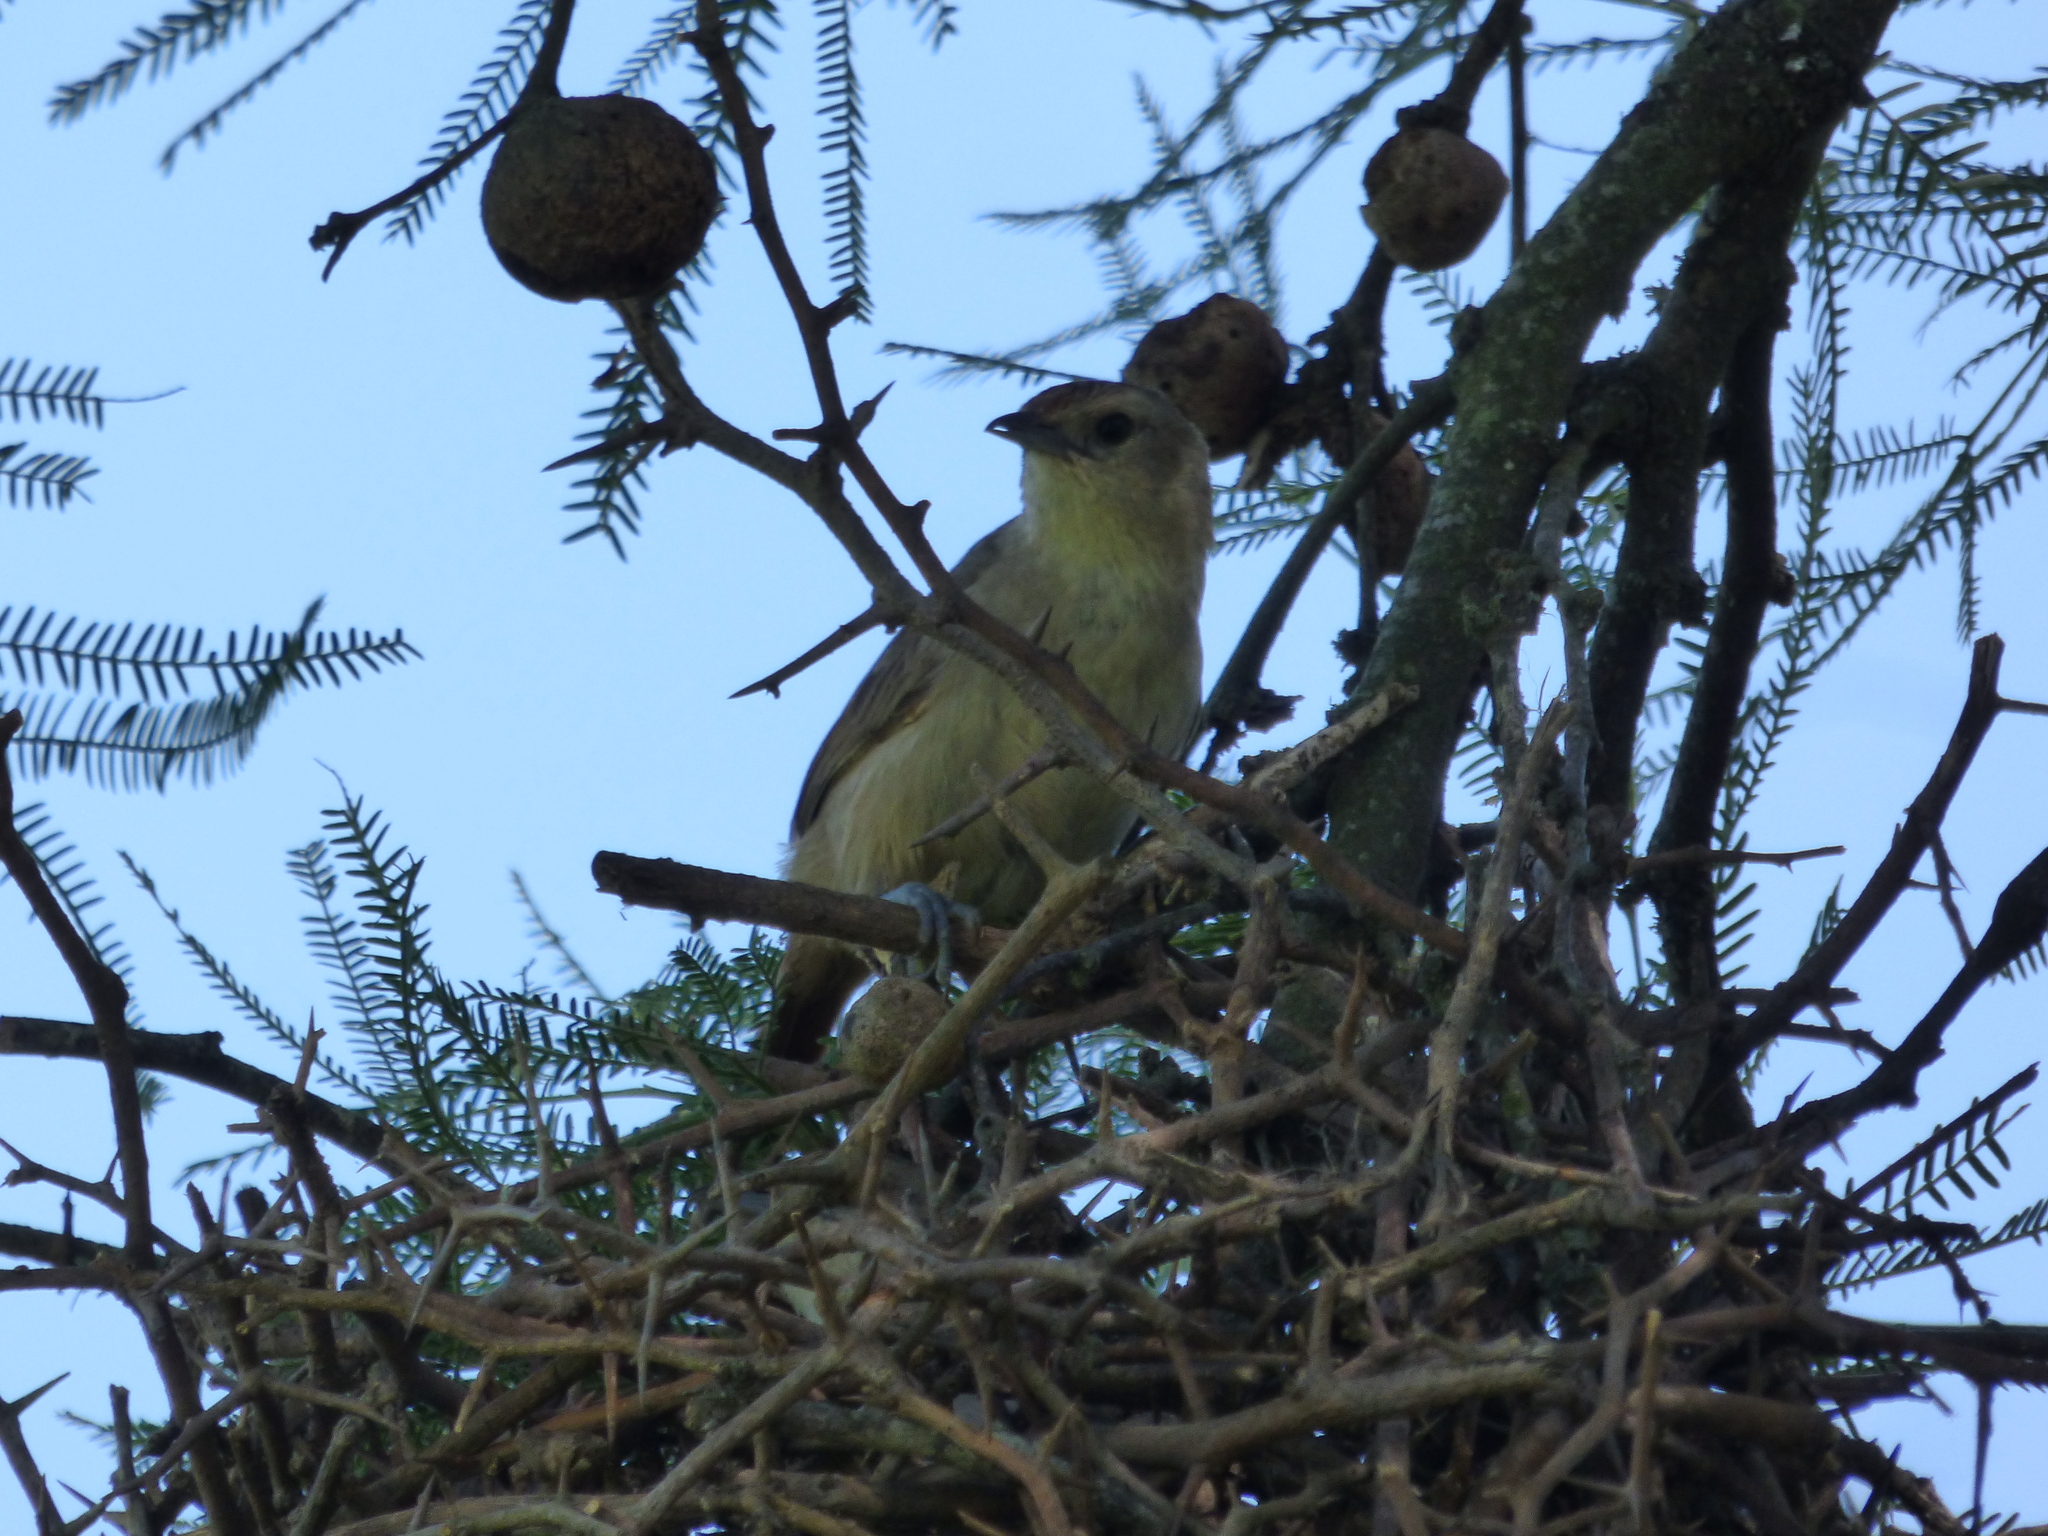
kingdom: Animalia
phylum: Chordata
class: Aves
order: Passeriformes
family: Furnariidae
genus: Phacellodomus
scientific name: Phacellodomus sibilatrix
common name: Little thornbird
